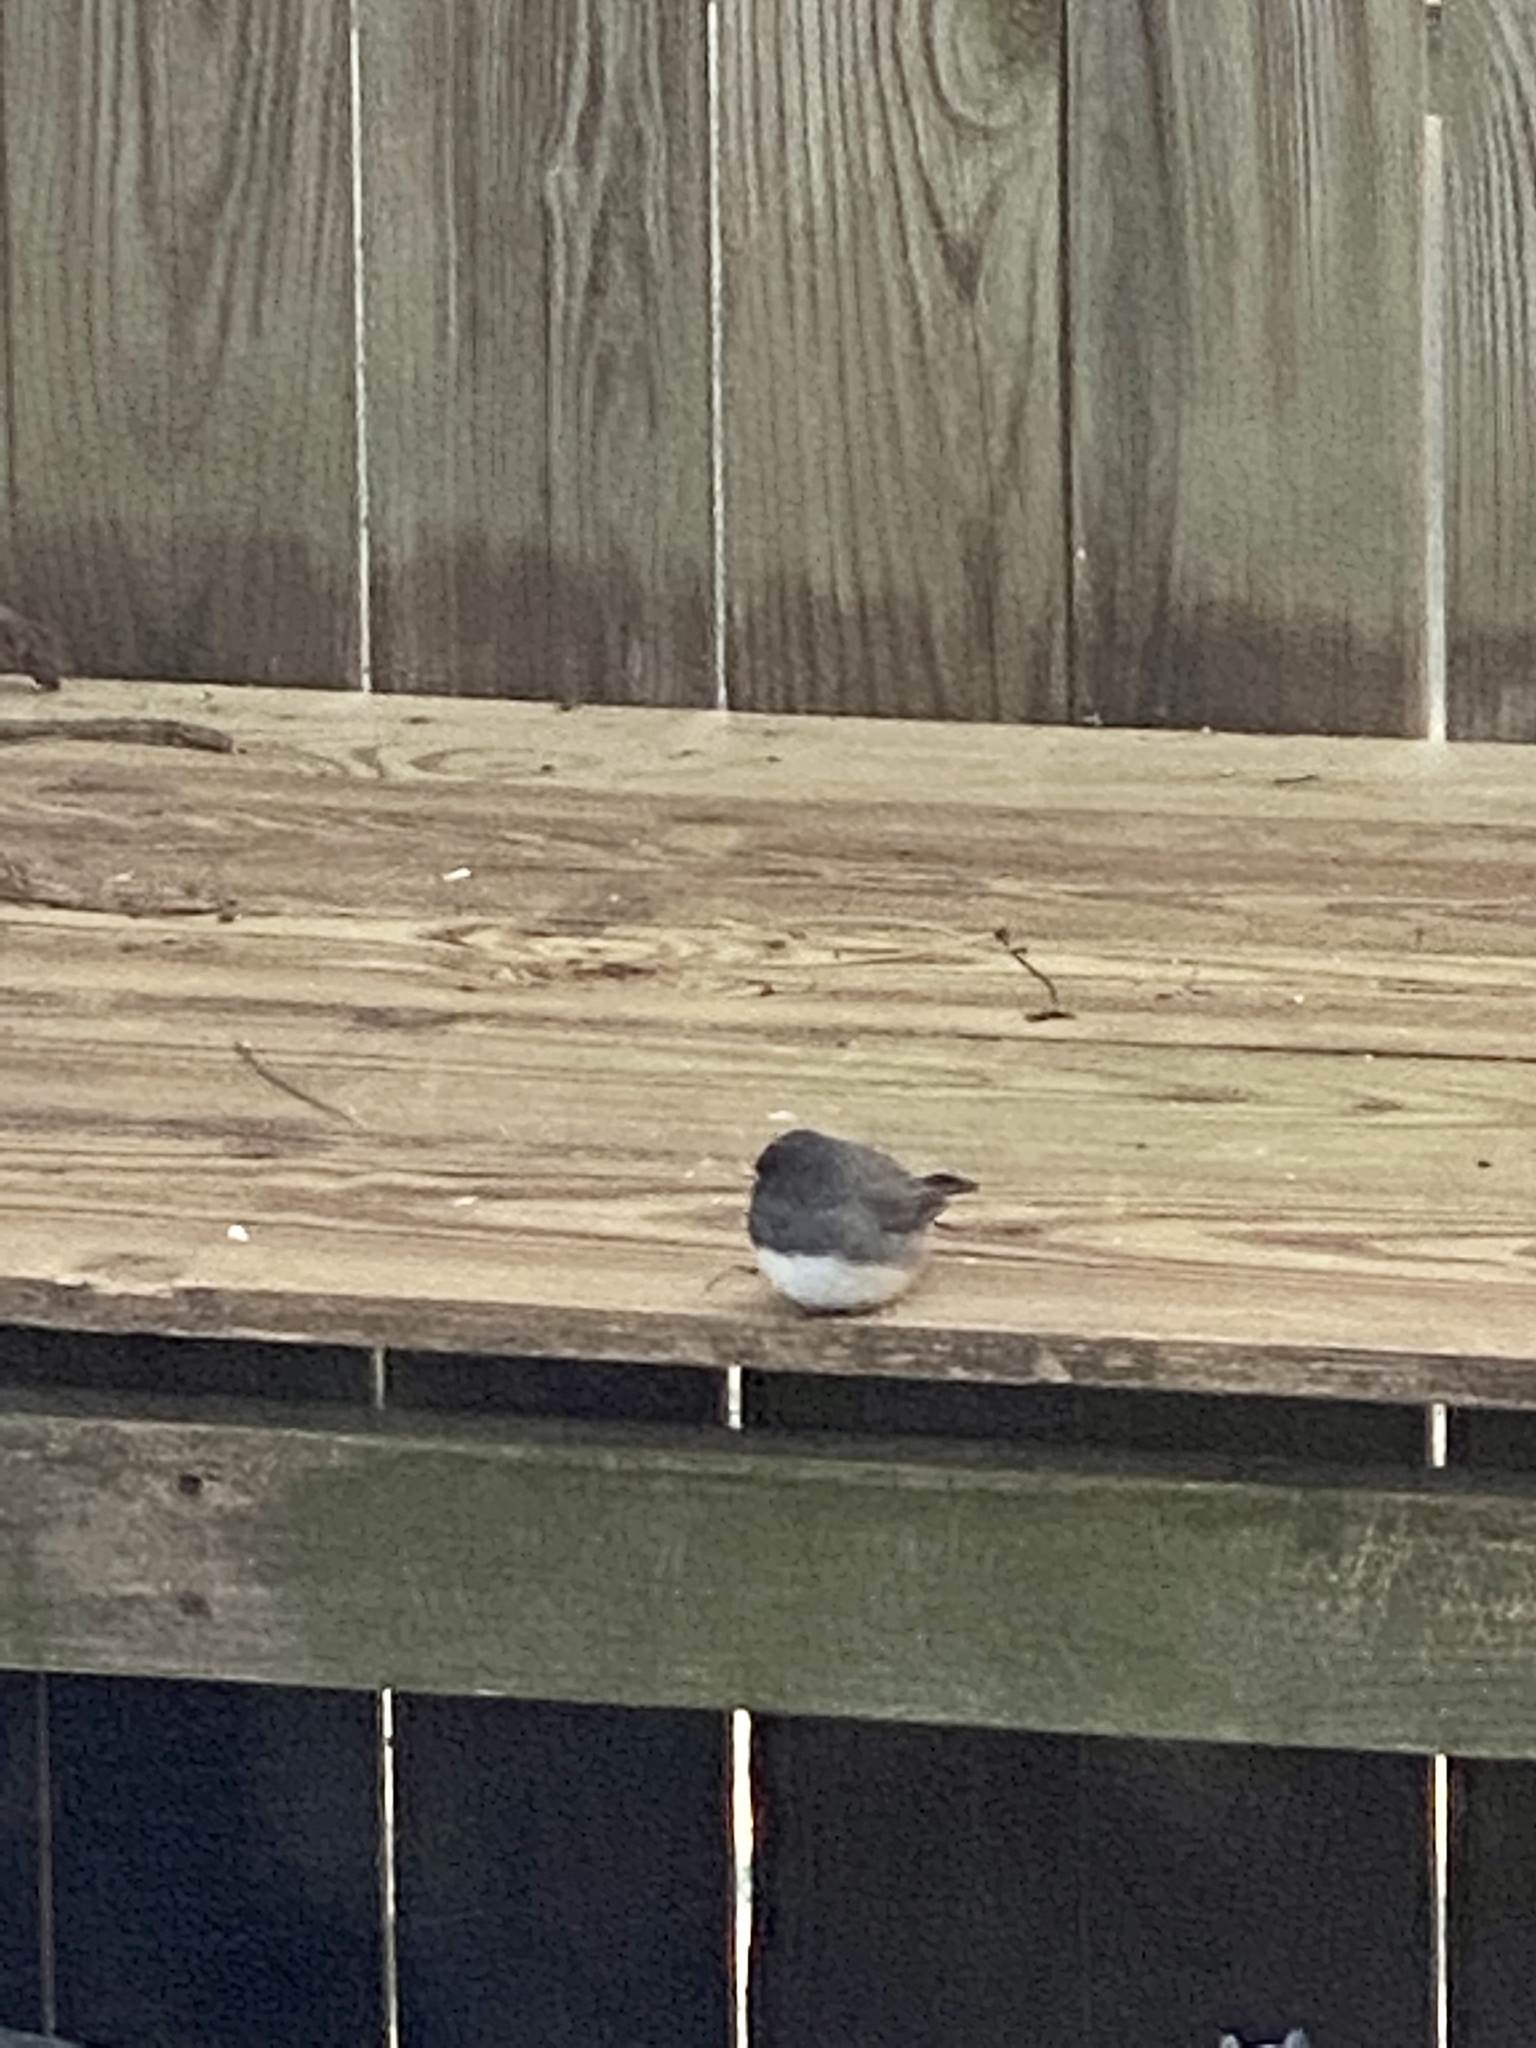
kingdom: Animalia
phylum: Chordata
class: Aves
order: Passeriformes
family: Passerellidae
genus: Junco
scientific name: Junco hyemalis
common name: Dark-eyed junco
